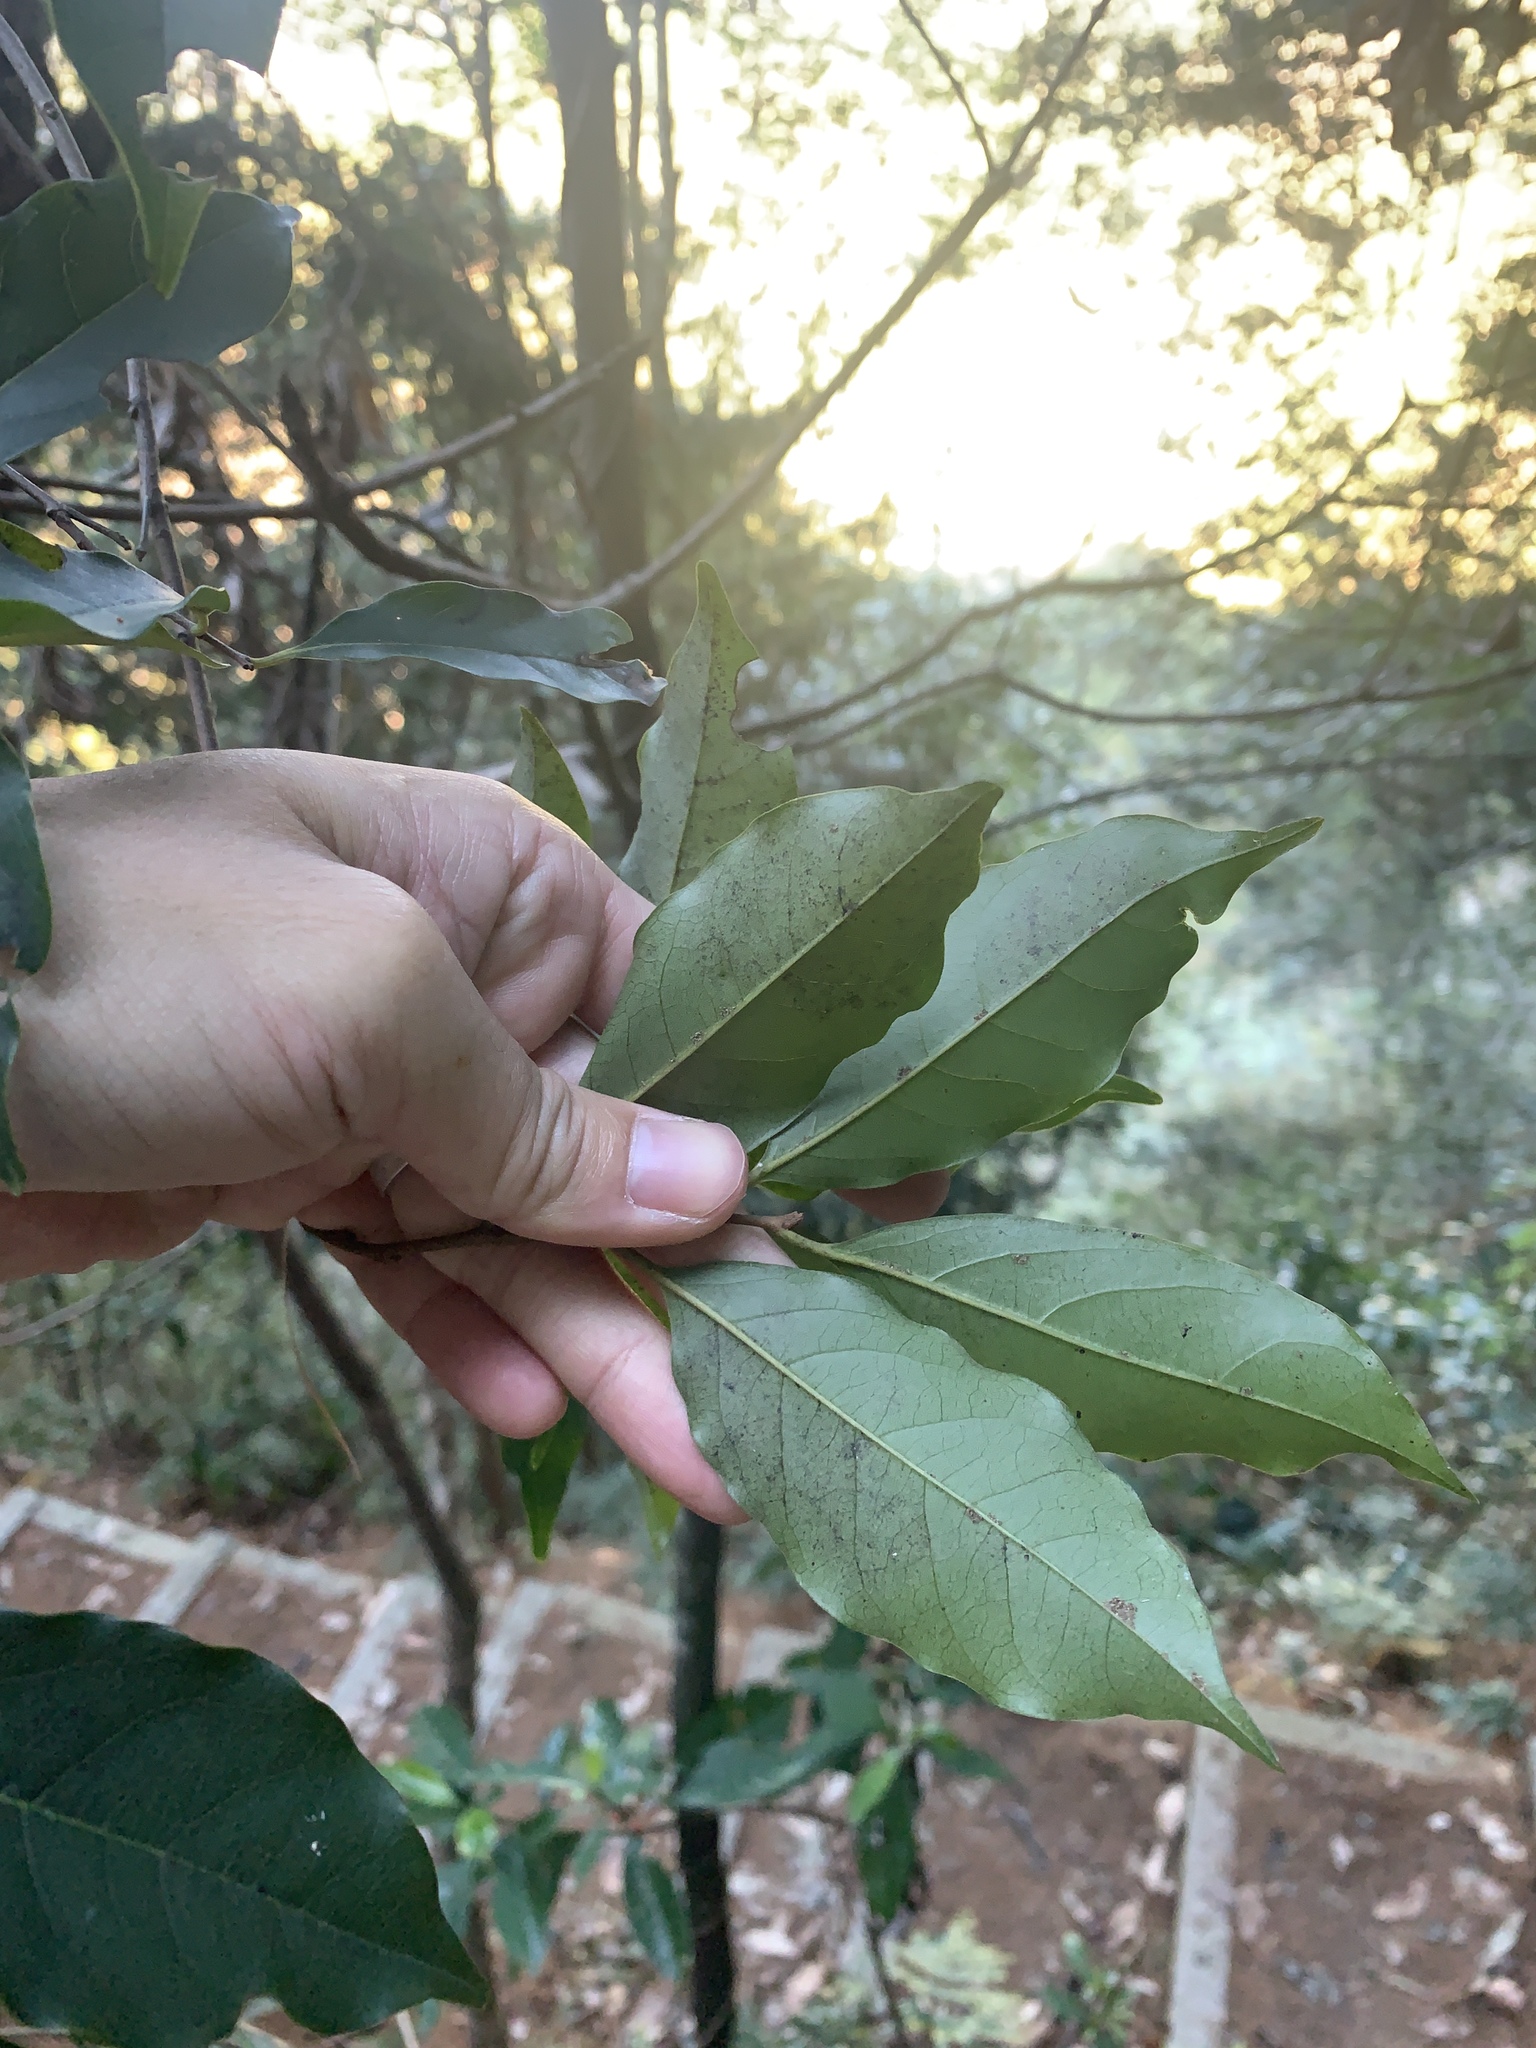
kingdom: Plantae
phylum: Tracheophyta
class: Magnoliopsida
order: Ericales
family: Ebenaceae
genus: Diospyros
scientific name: Diospyros morrisiana
